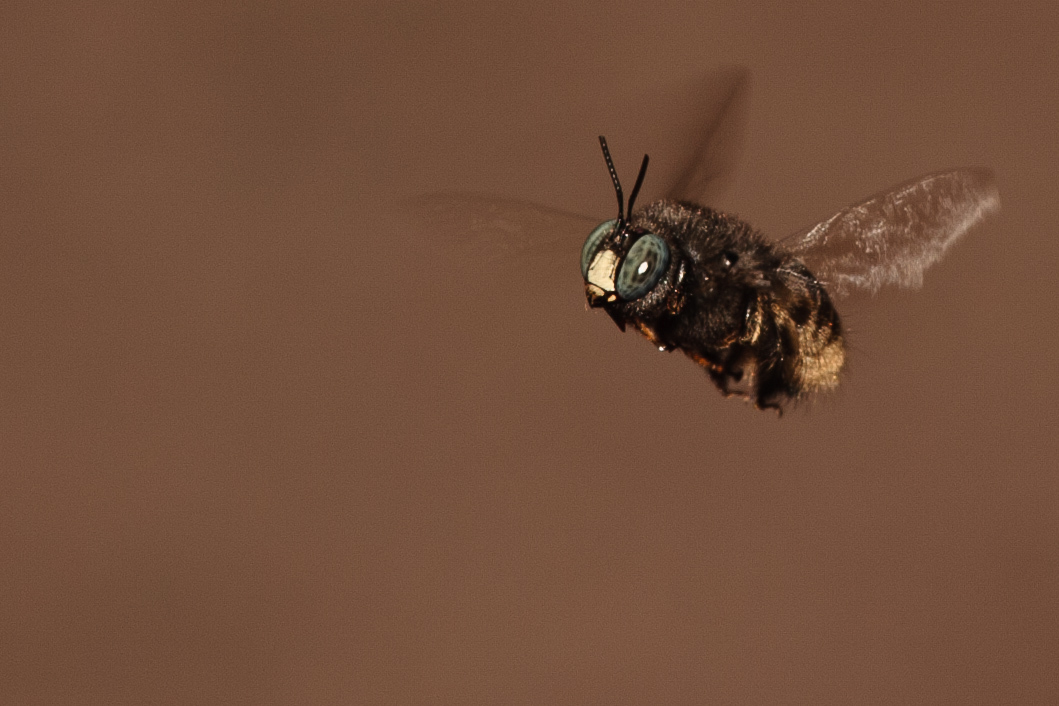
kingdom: Animalia
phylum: Arthropoda
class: Insecta
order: Hymenoptera
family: Apidae
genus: Xylocopa
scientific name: Xylocopa tabaniformis
